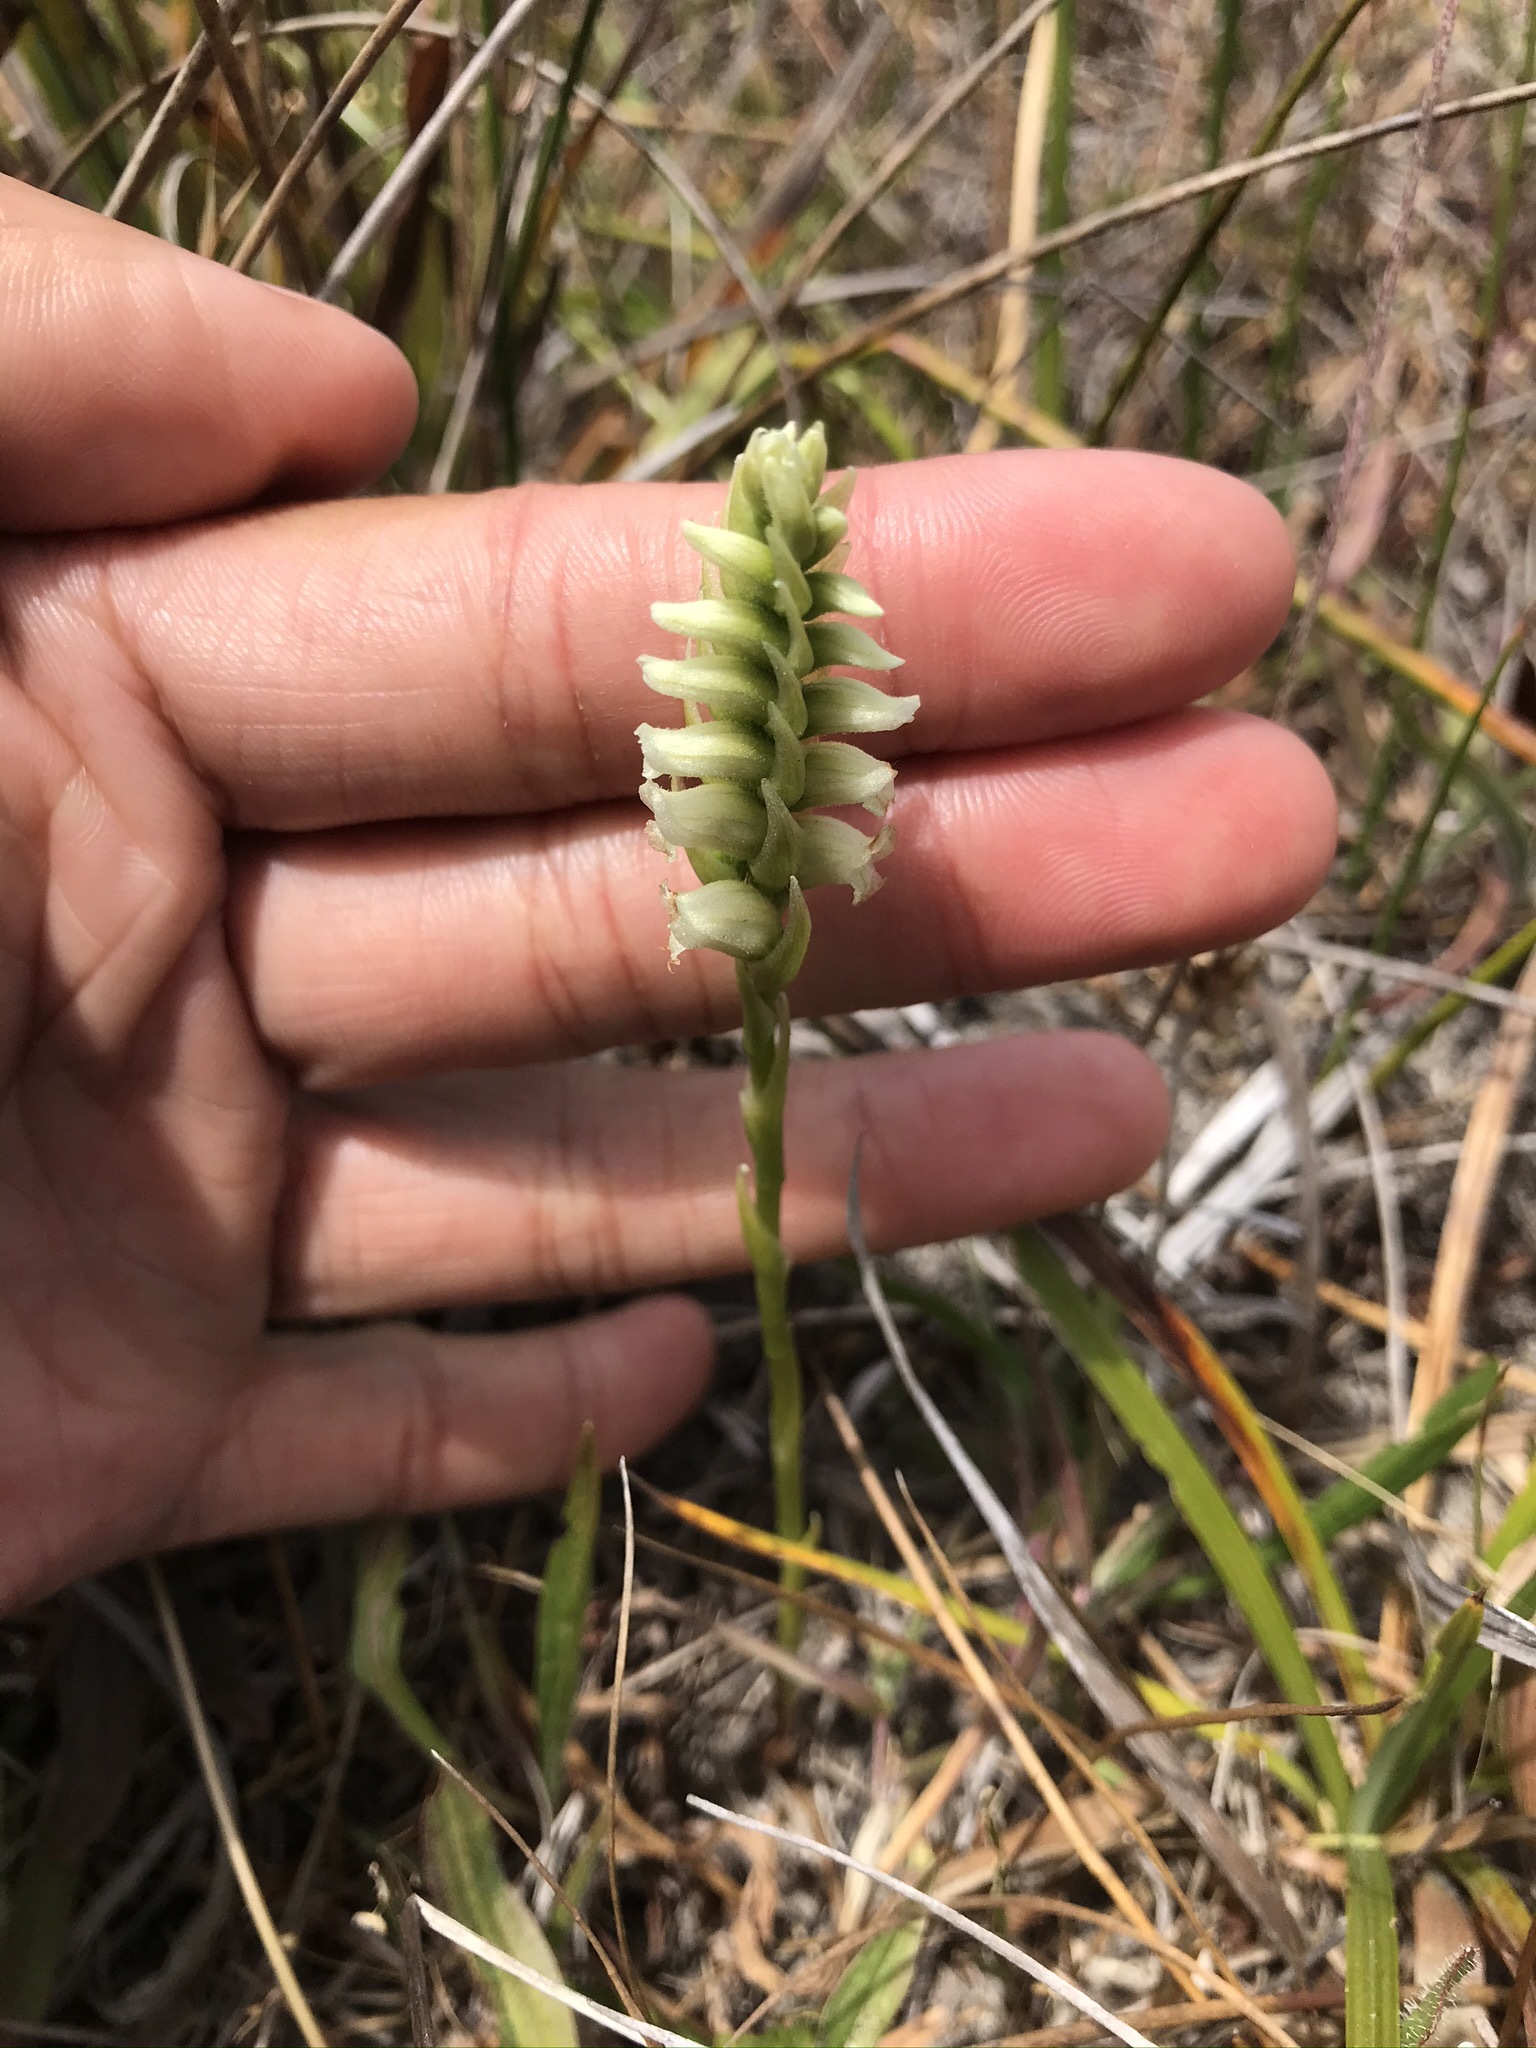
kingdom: Plantae
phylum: Tracheophyta
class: Liliopsida
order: Asparagales
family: Orchidaceae
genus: Spiranthes
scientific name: Spiranthes romanzoffiana
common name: Irish lady's-tresses
